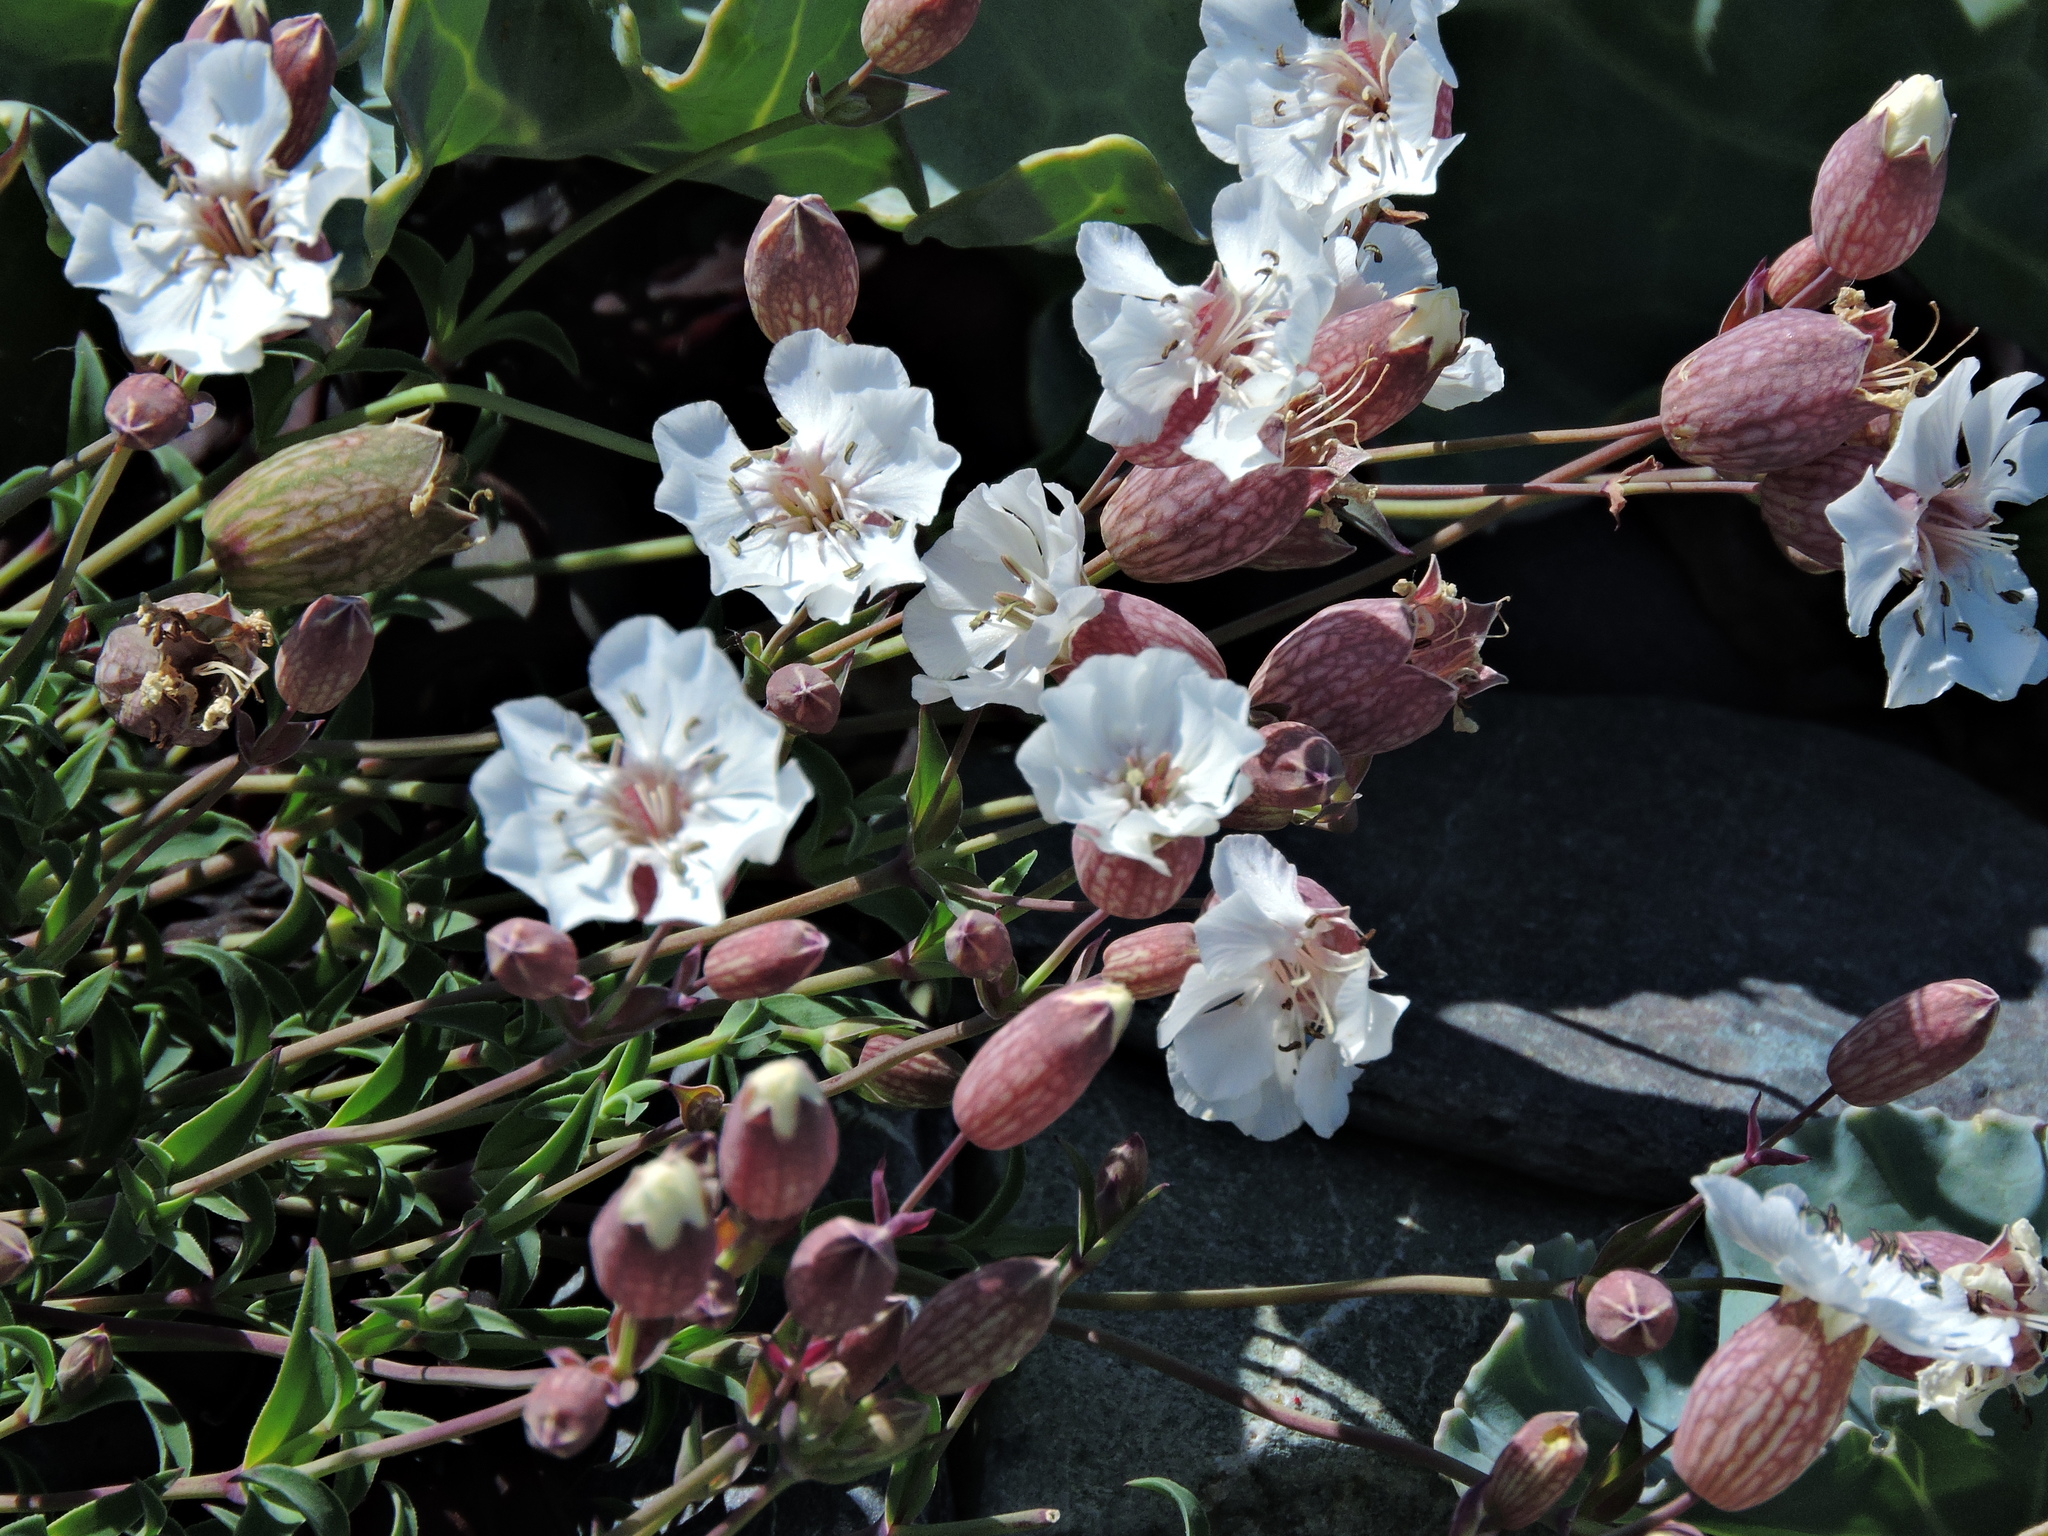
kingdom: Plantae
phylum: Tracheophyta
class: Magnoliopsida
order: Caryophyllales
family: Caryophyllaceae
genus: Silene
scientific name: Silene uniflora
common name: Sea campion
